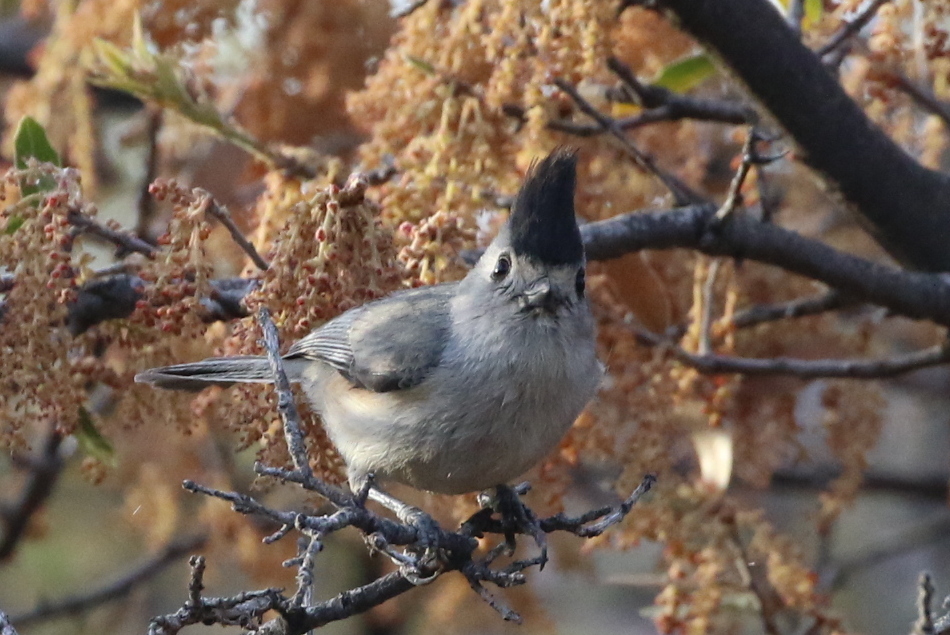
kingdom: Animalia
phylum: Chordata
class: Aves
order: Passeriformes
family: Paridae
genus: Baeolophus
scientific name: Baeolophus atricristatus
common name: Black-crested titmouse
